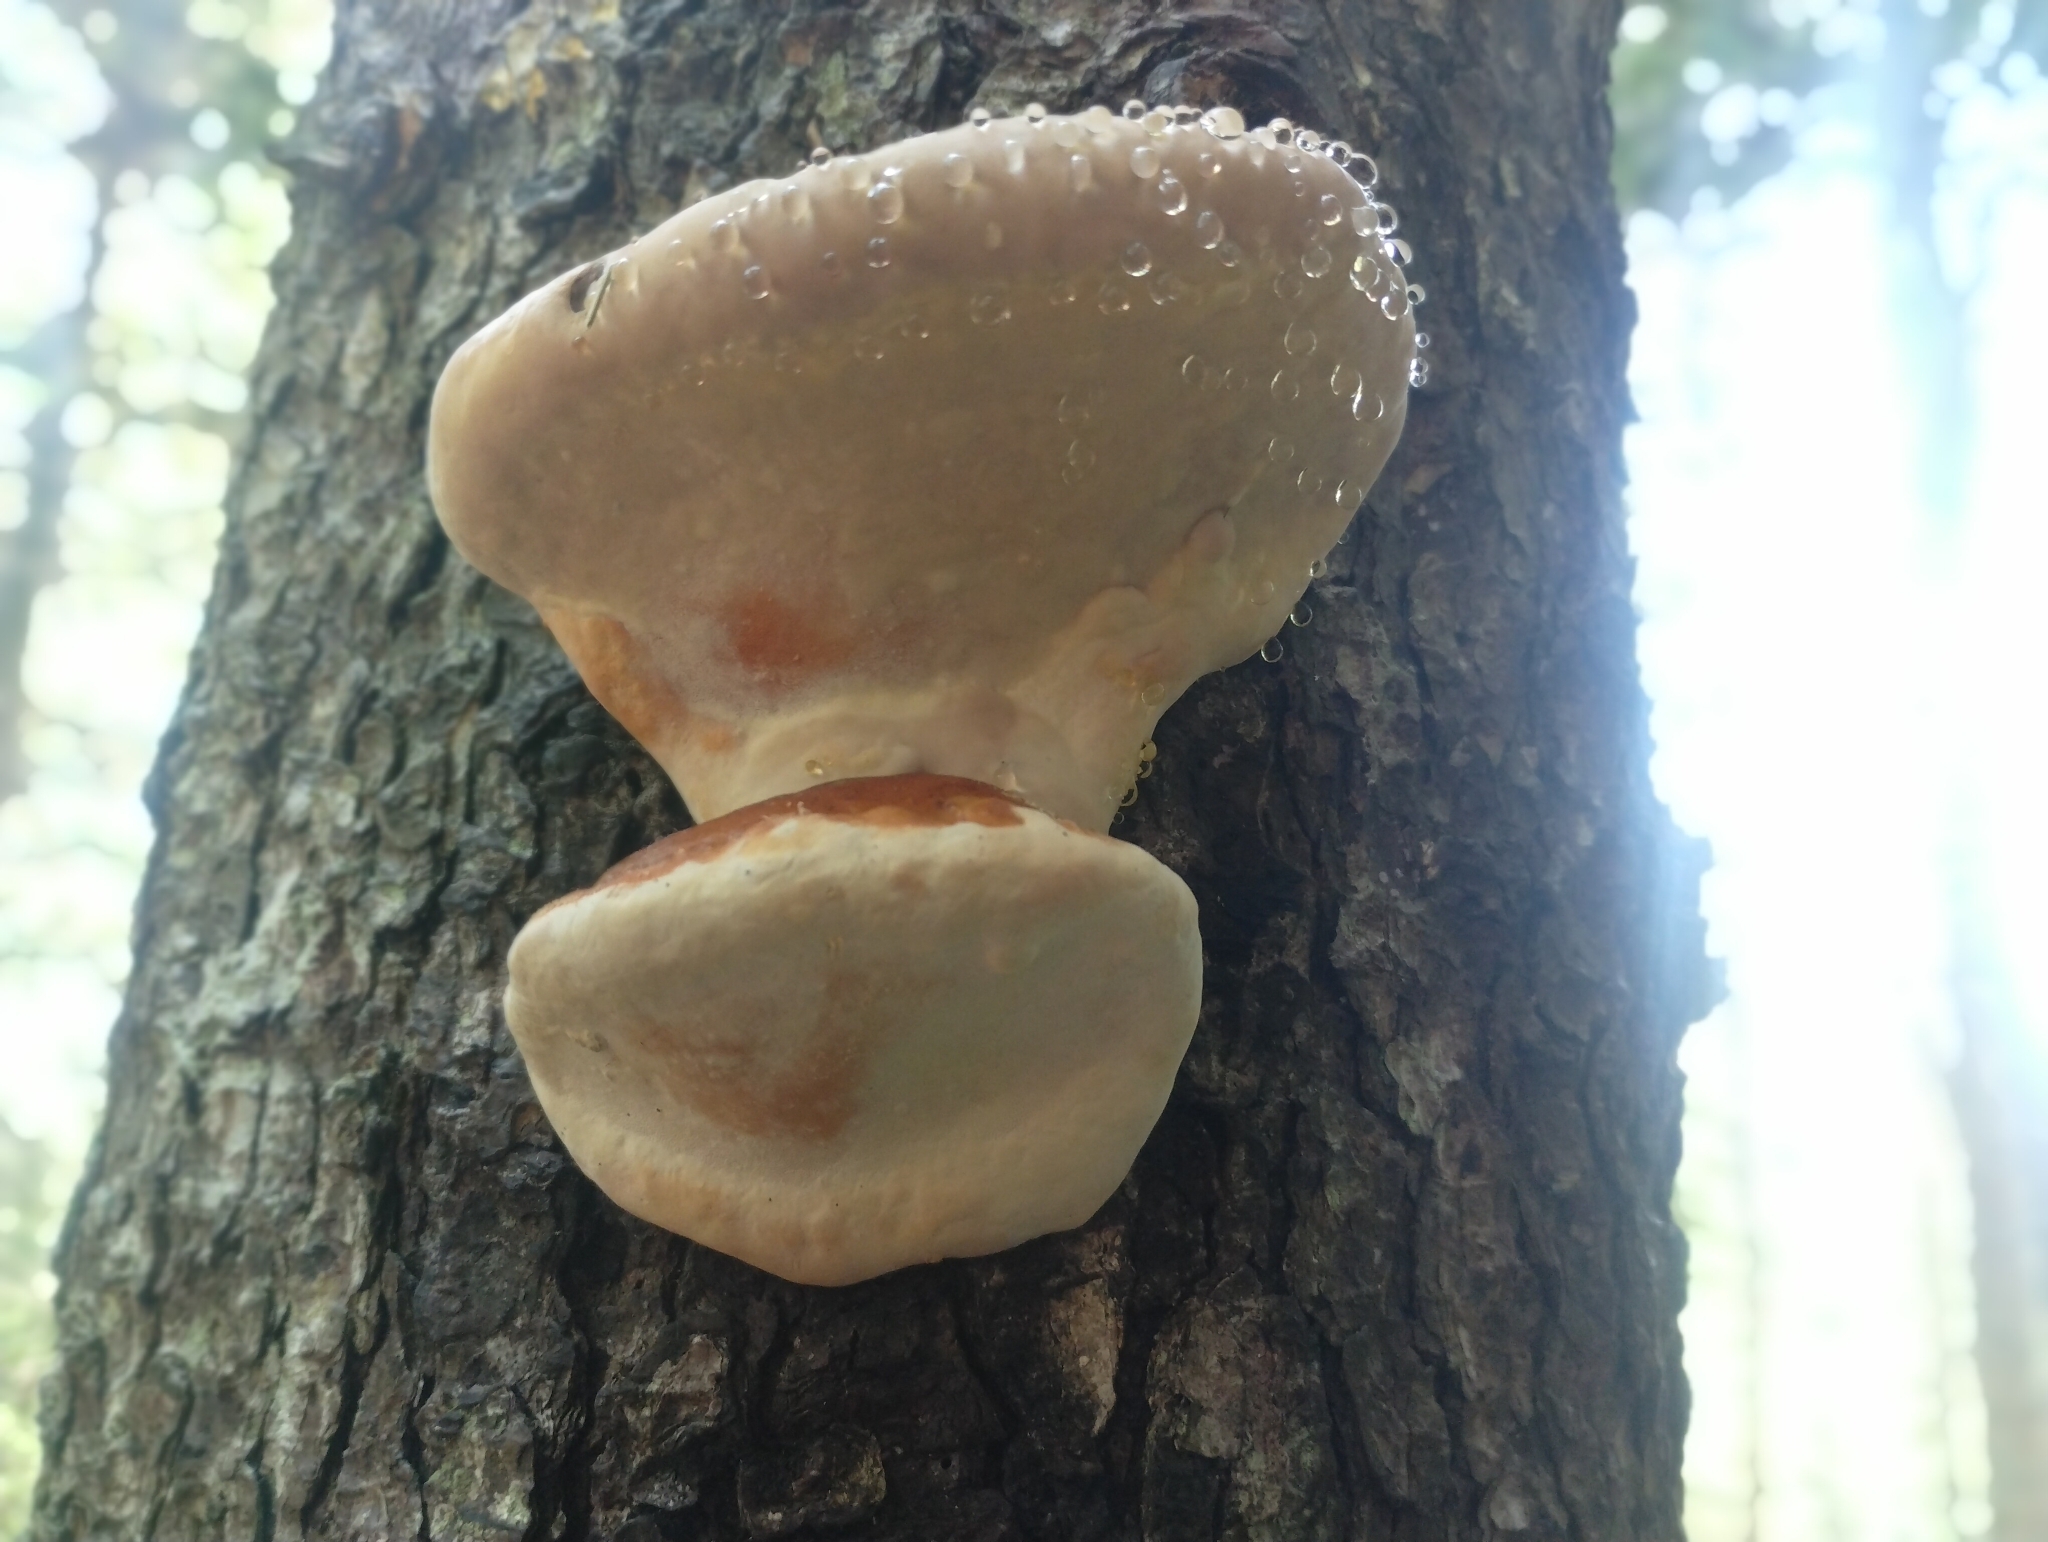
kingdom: Fungi
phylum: Basidiomycota
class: Agaricomycetes
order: Polyporales
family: Fomitopsidaceae
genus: Fomitopsis
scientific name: Fomitopsis mounceae
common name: Northern red belt
